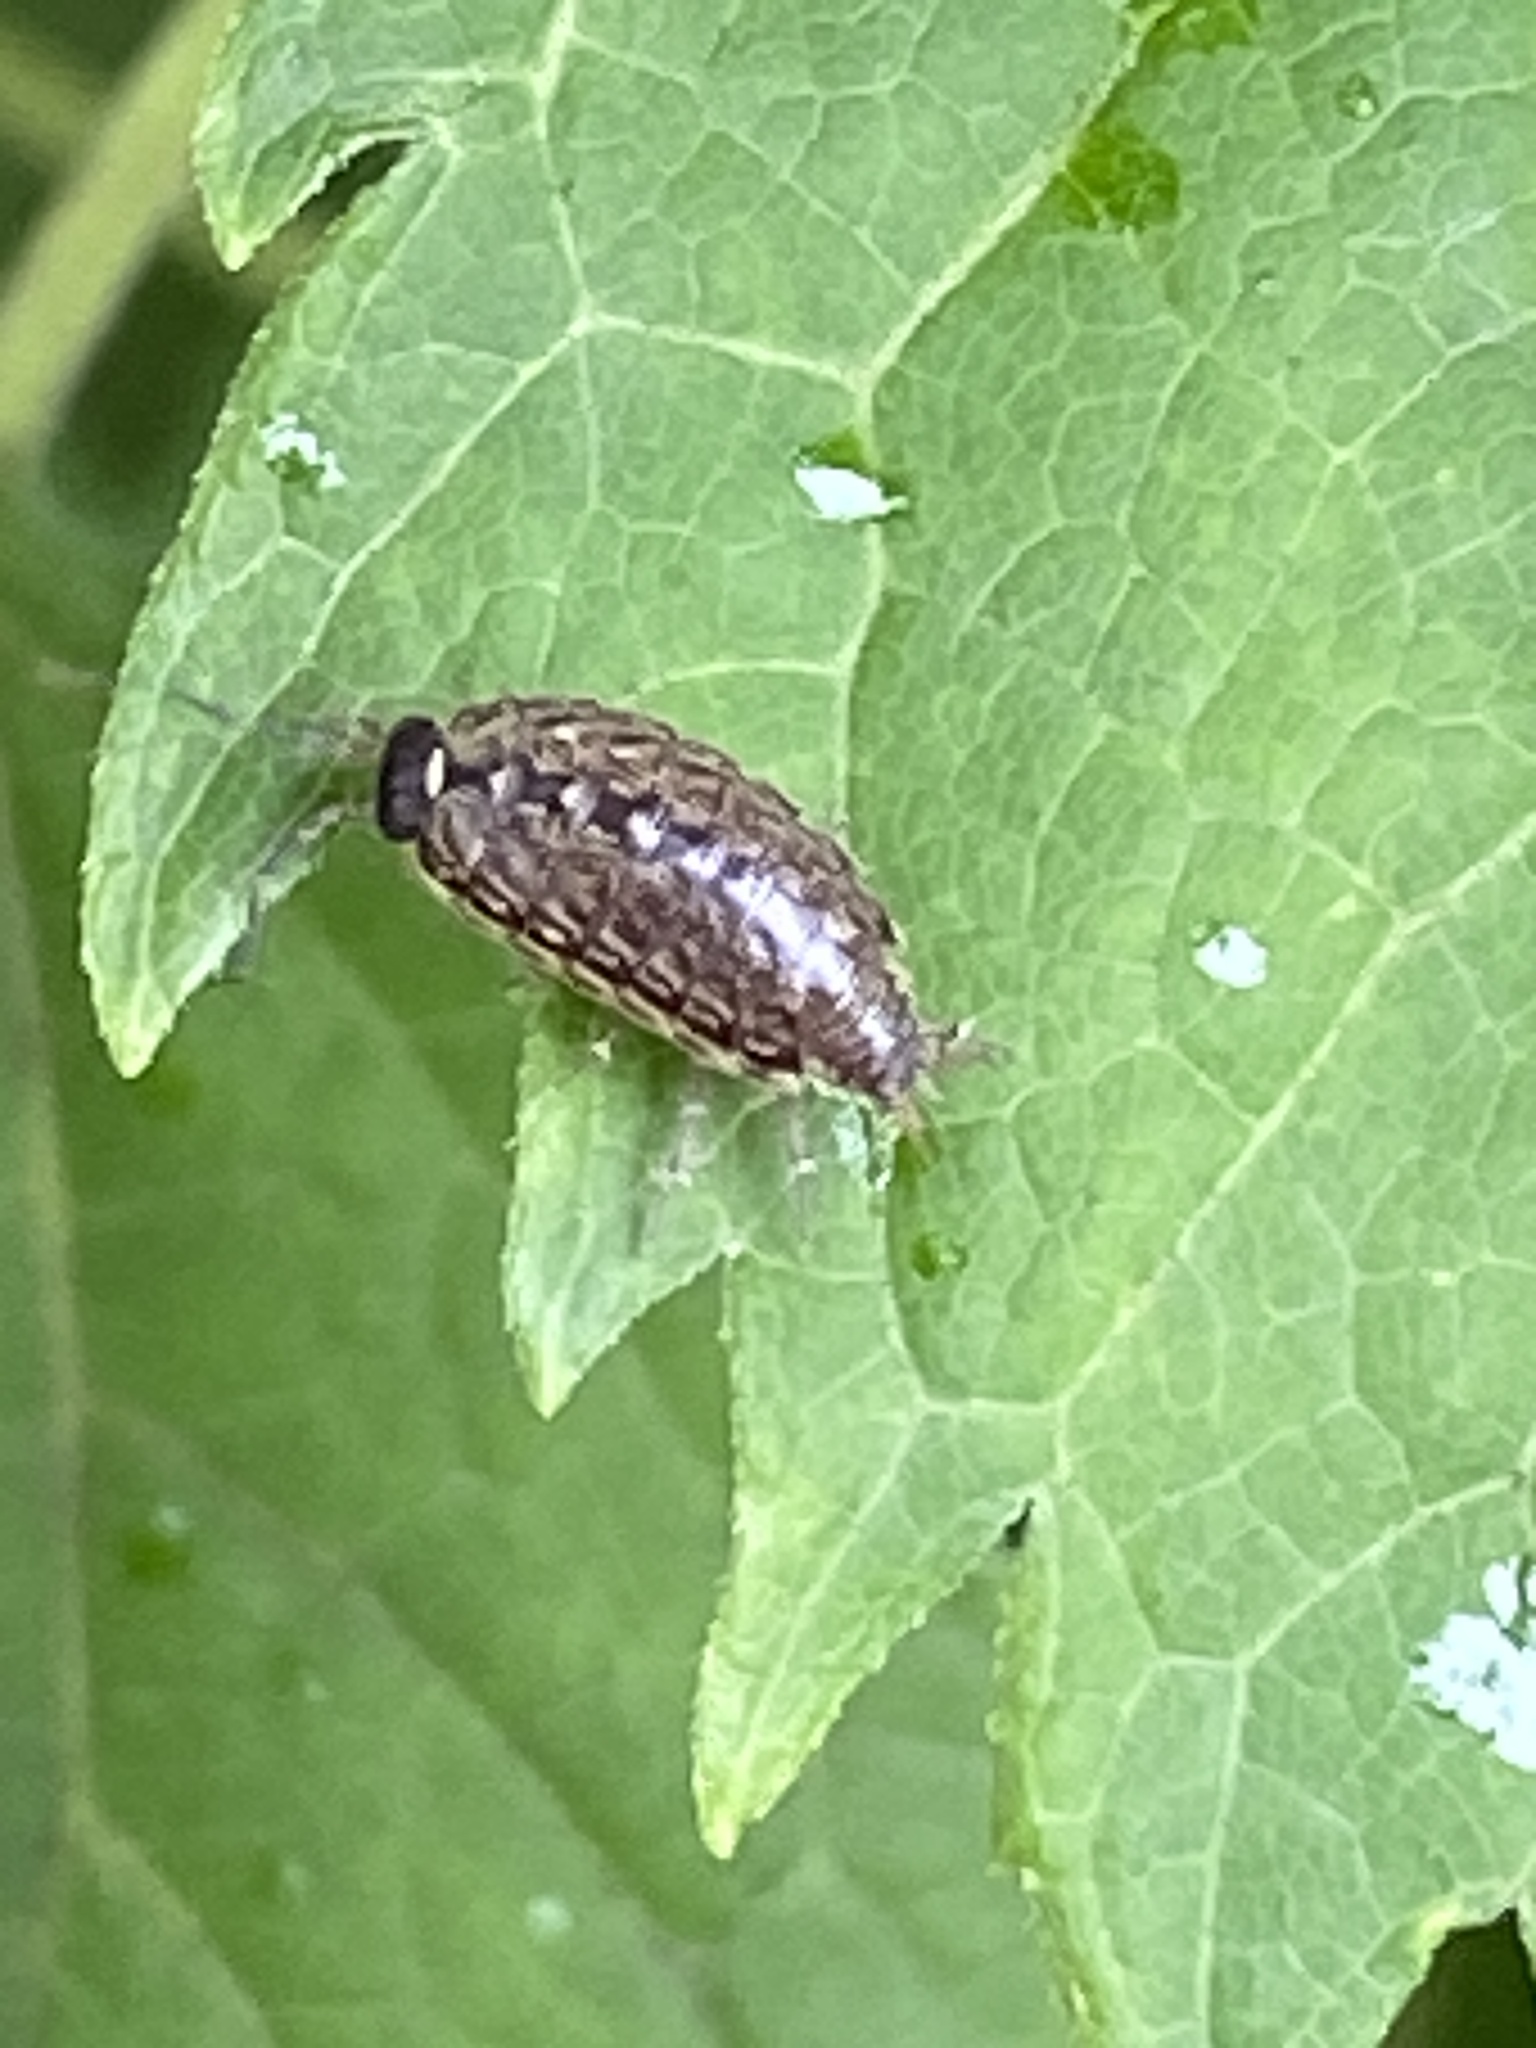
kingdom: Animalia
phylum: Arthropoda
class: Malacostraca
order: Isopoda
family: Philosciidae
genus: Philoscia
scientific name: Philoscia muscorum
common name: Common striped woodlouse
